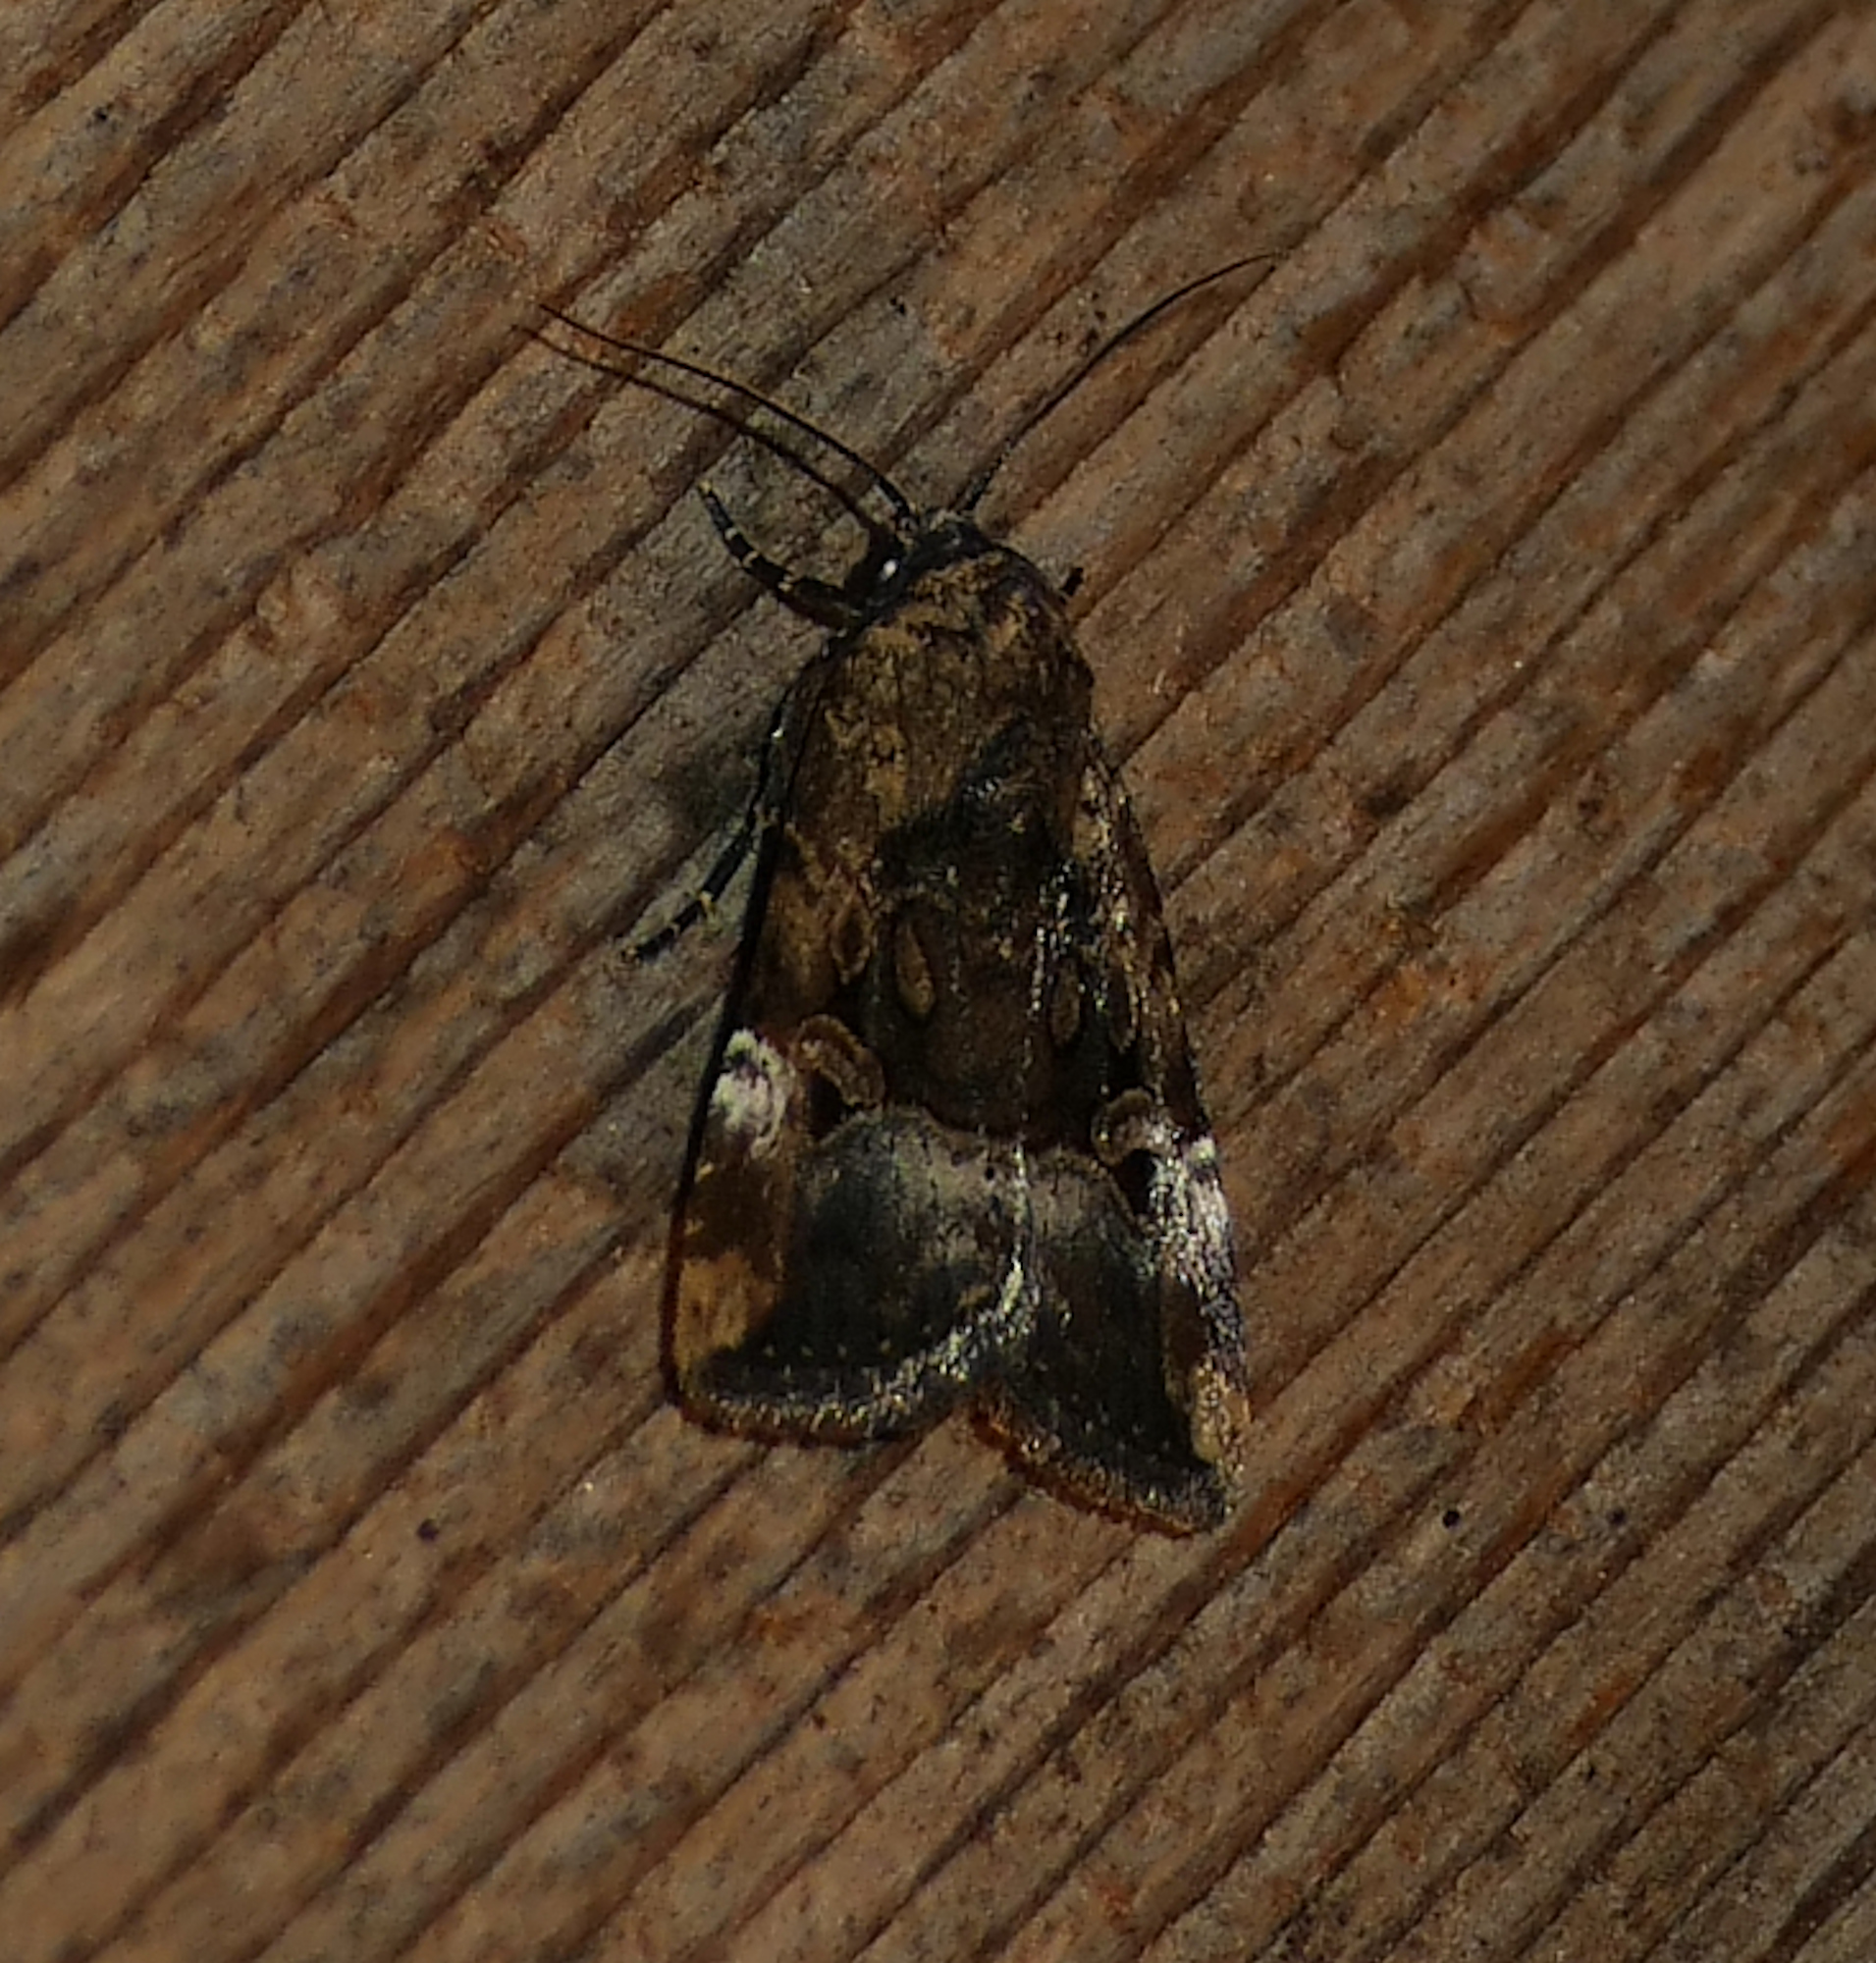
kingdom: Animalia
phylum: Arthropoda
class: Insecta
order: Lepidoptera
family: Noctuidae
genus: Elaphria
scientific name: Elaphria chalcedonia
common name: Chalcedony midget
